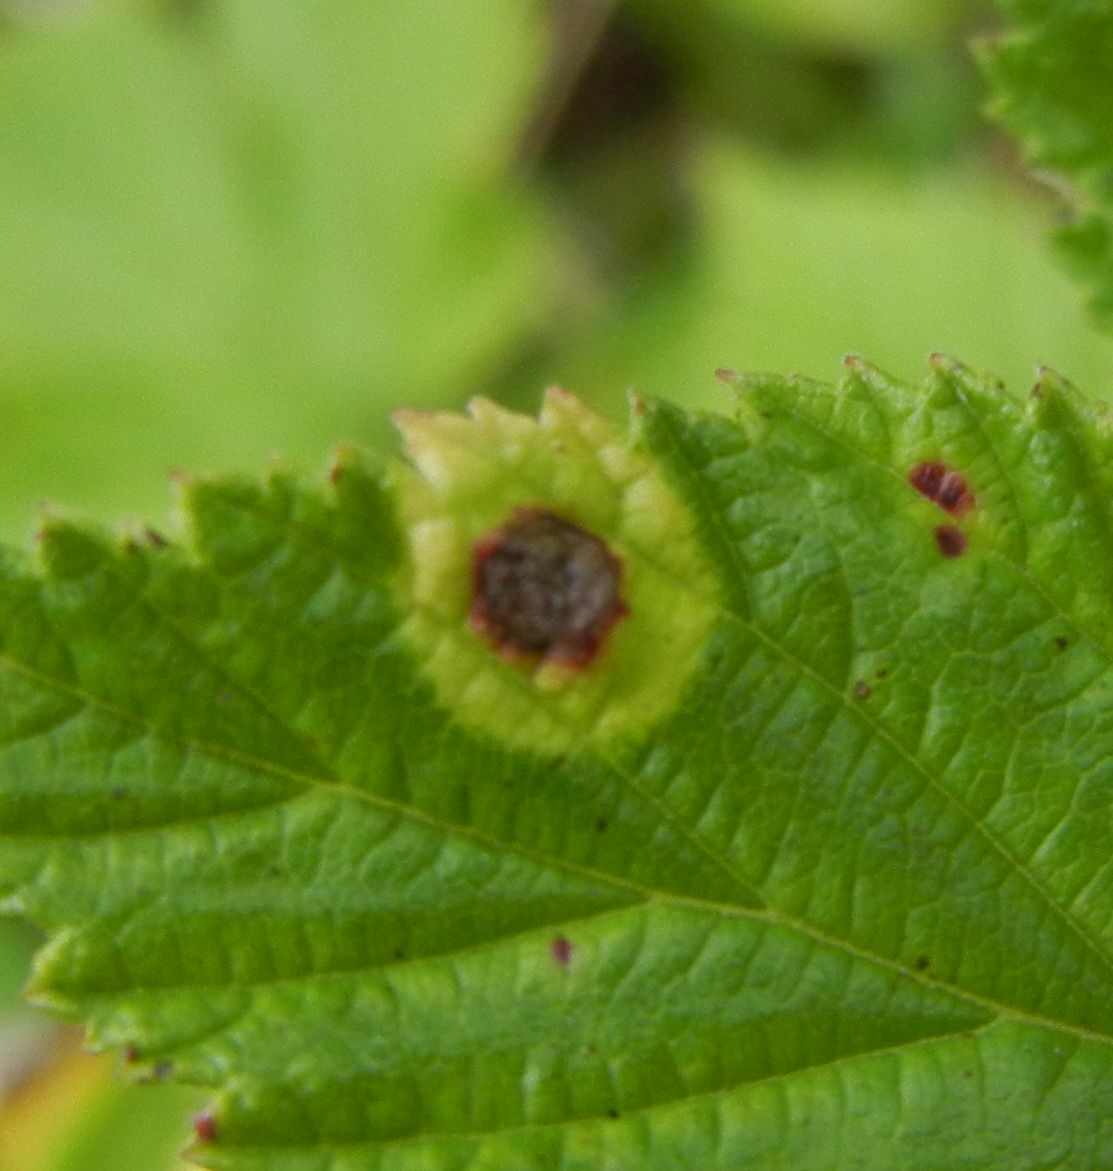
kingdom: Animalia
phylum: Arthropoda
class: Insecta
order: Diptera
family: Cecidomyiidae
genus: Dasineura
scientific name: Dasineura pustulans
